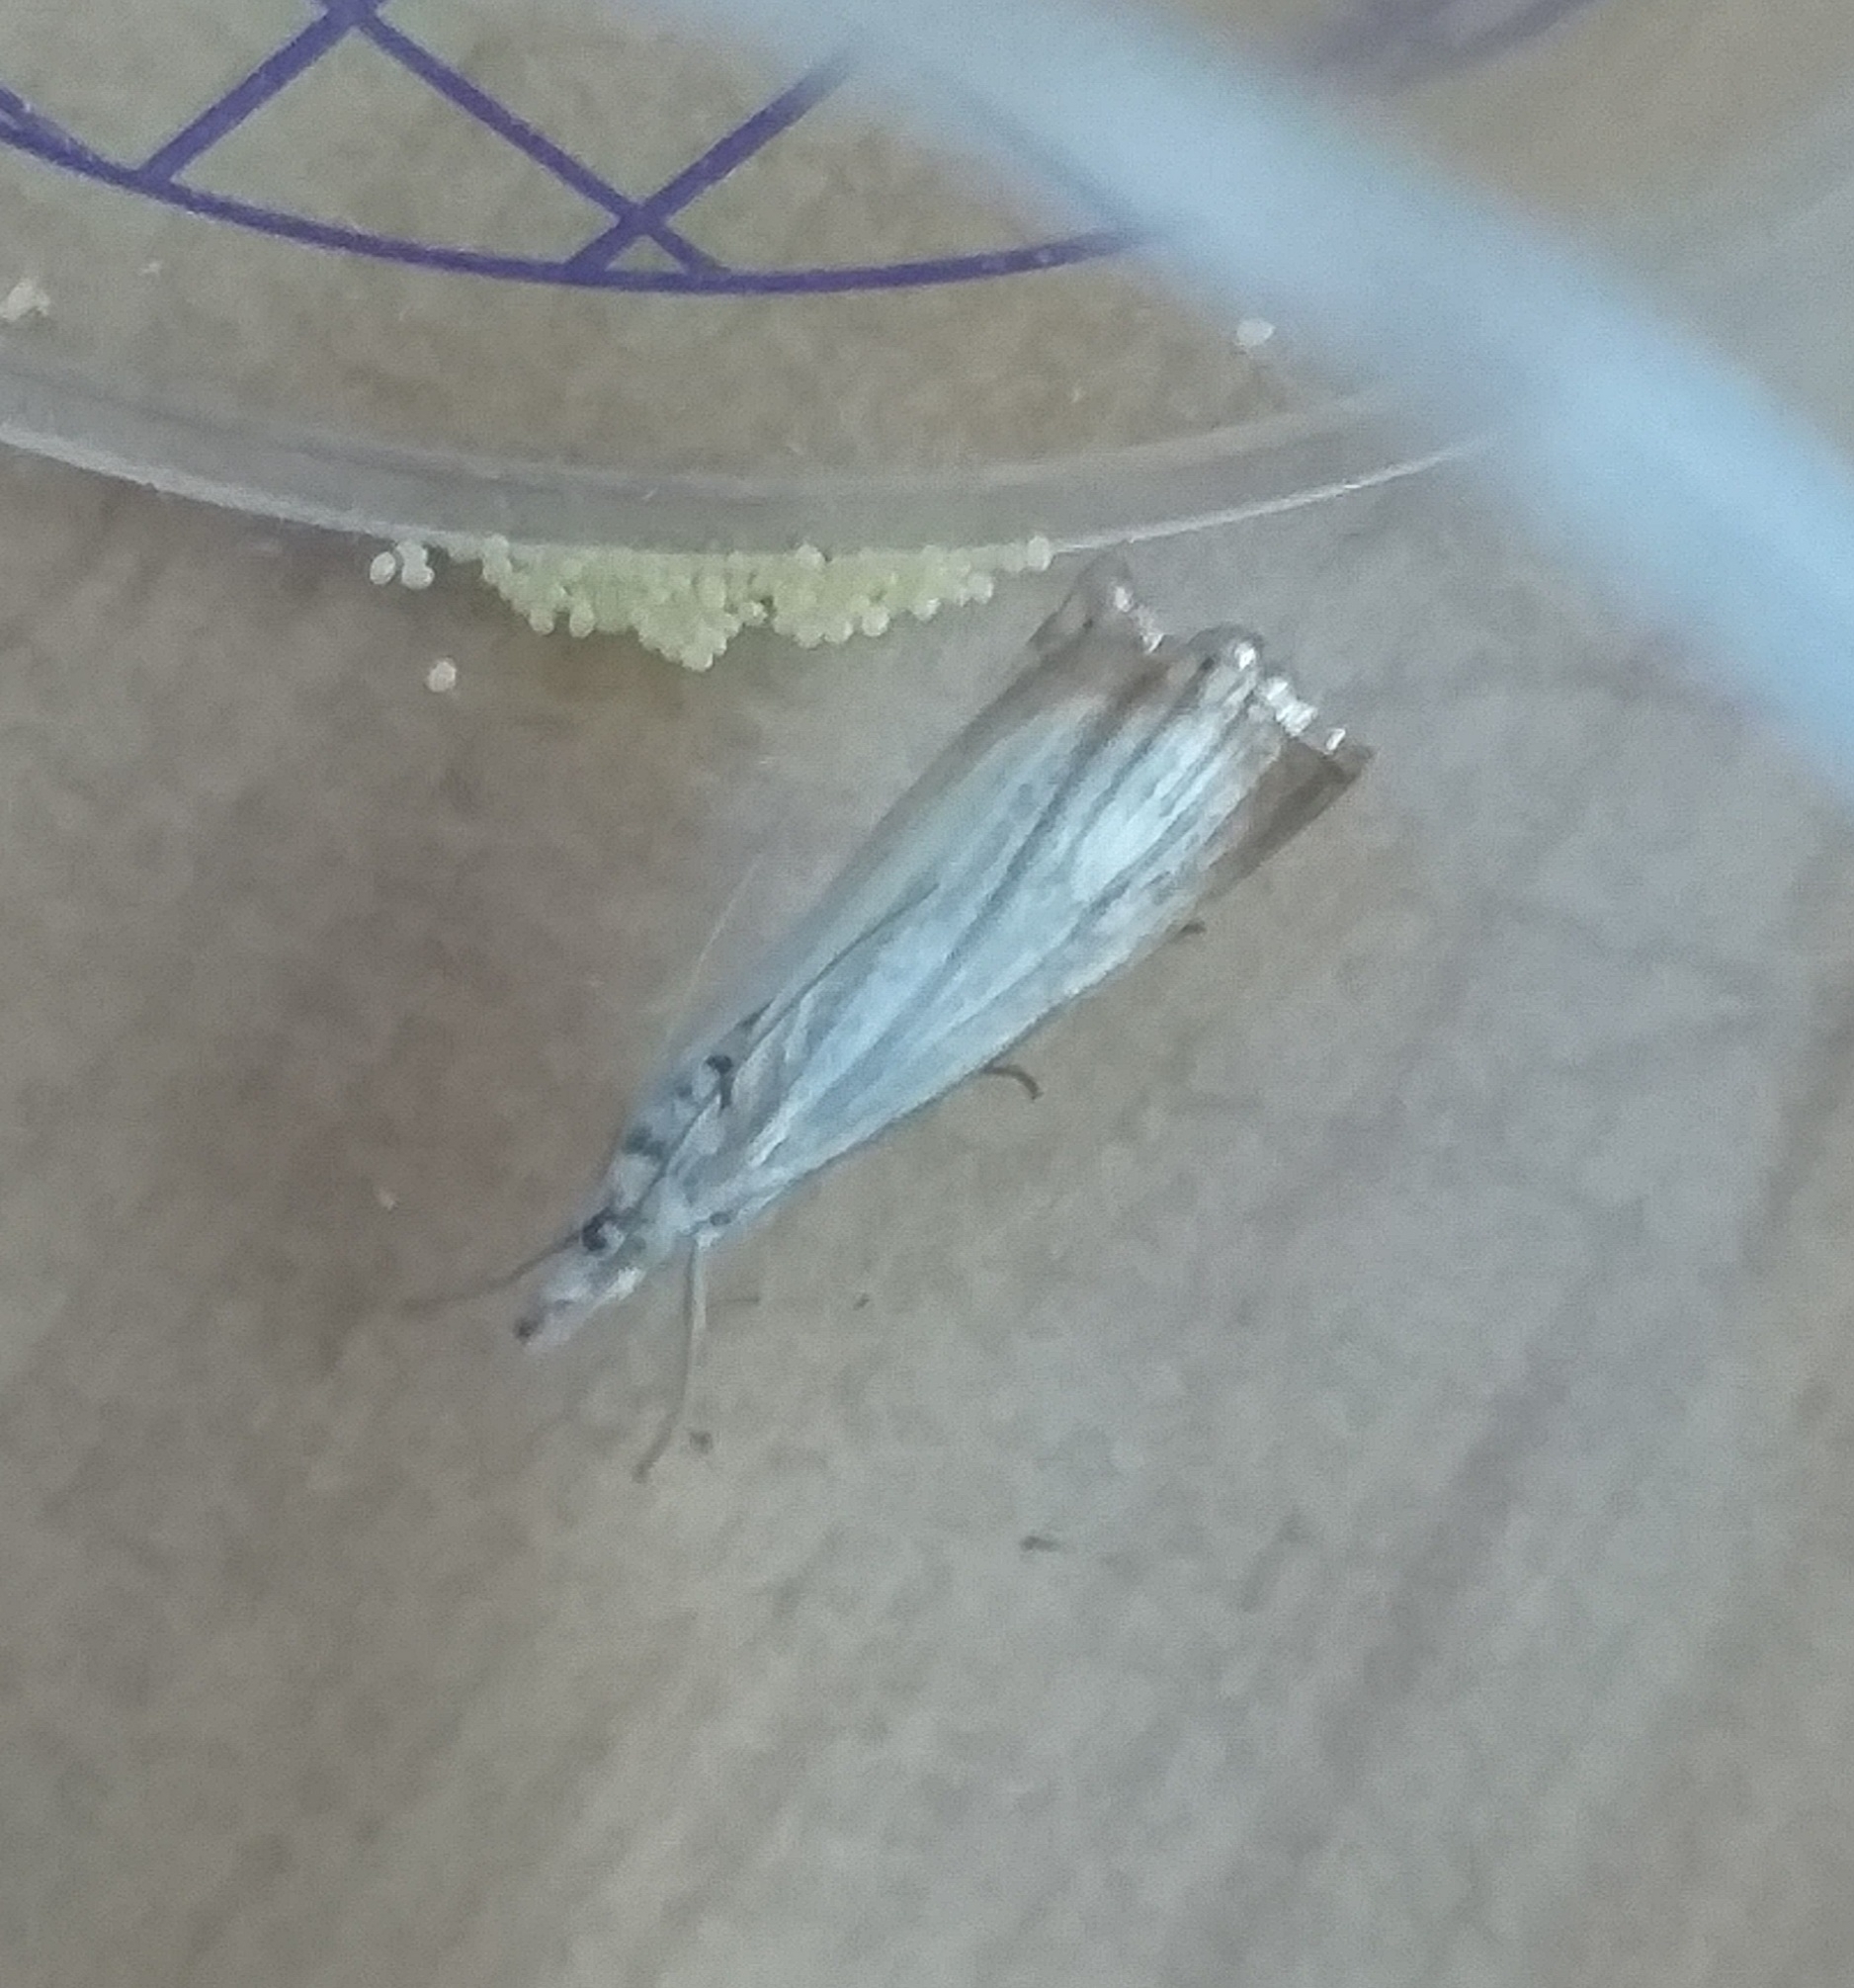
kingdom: Animalia
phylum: Arthropoda
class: Insecta
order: Lepidoptera
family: Crambidae
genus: Chrysoteuchia
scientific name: Chrysoteuchia culmella
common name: Garden grass-veneer
